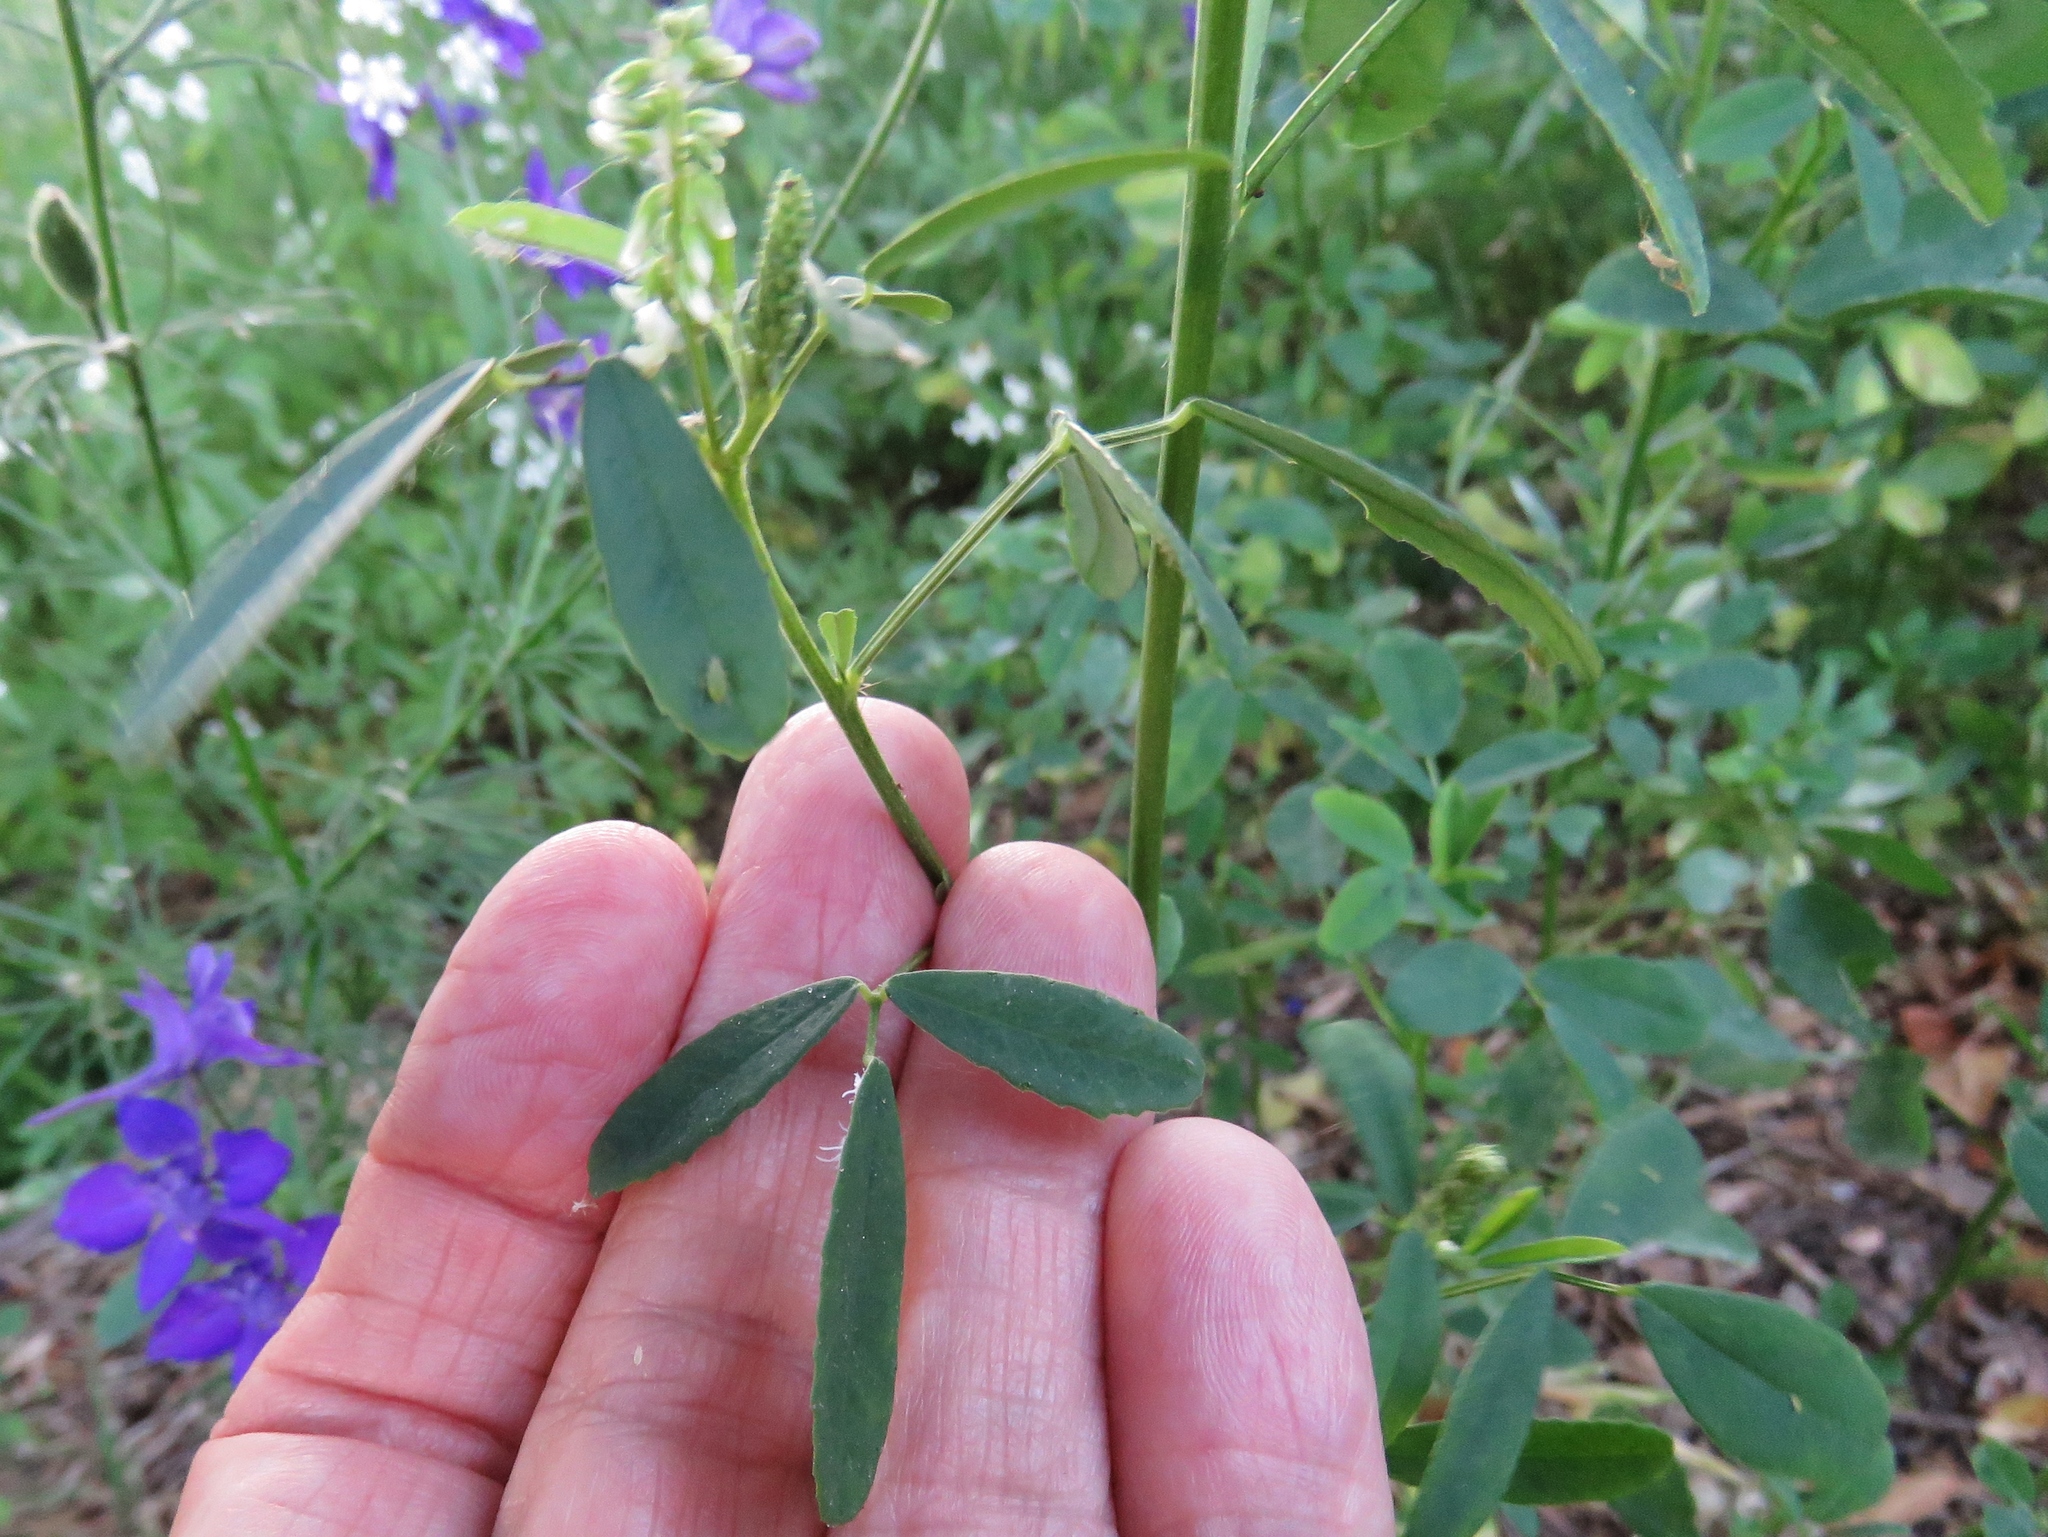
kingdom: Plantae
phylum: Tracheophyta
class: Magnoliopsida
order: Fabales
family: Fabaceae
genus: Melilotus
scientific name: Melilotus albus
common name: White melilot
